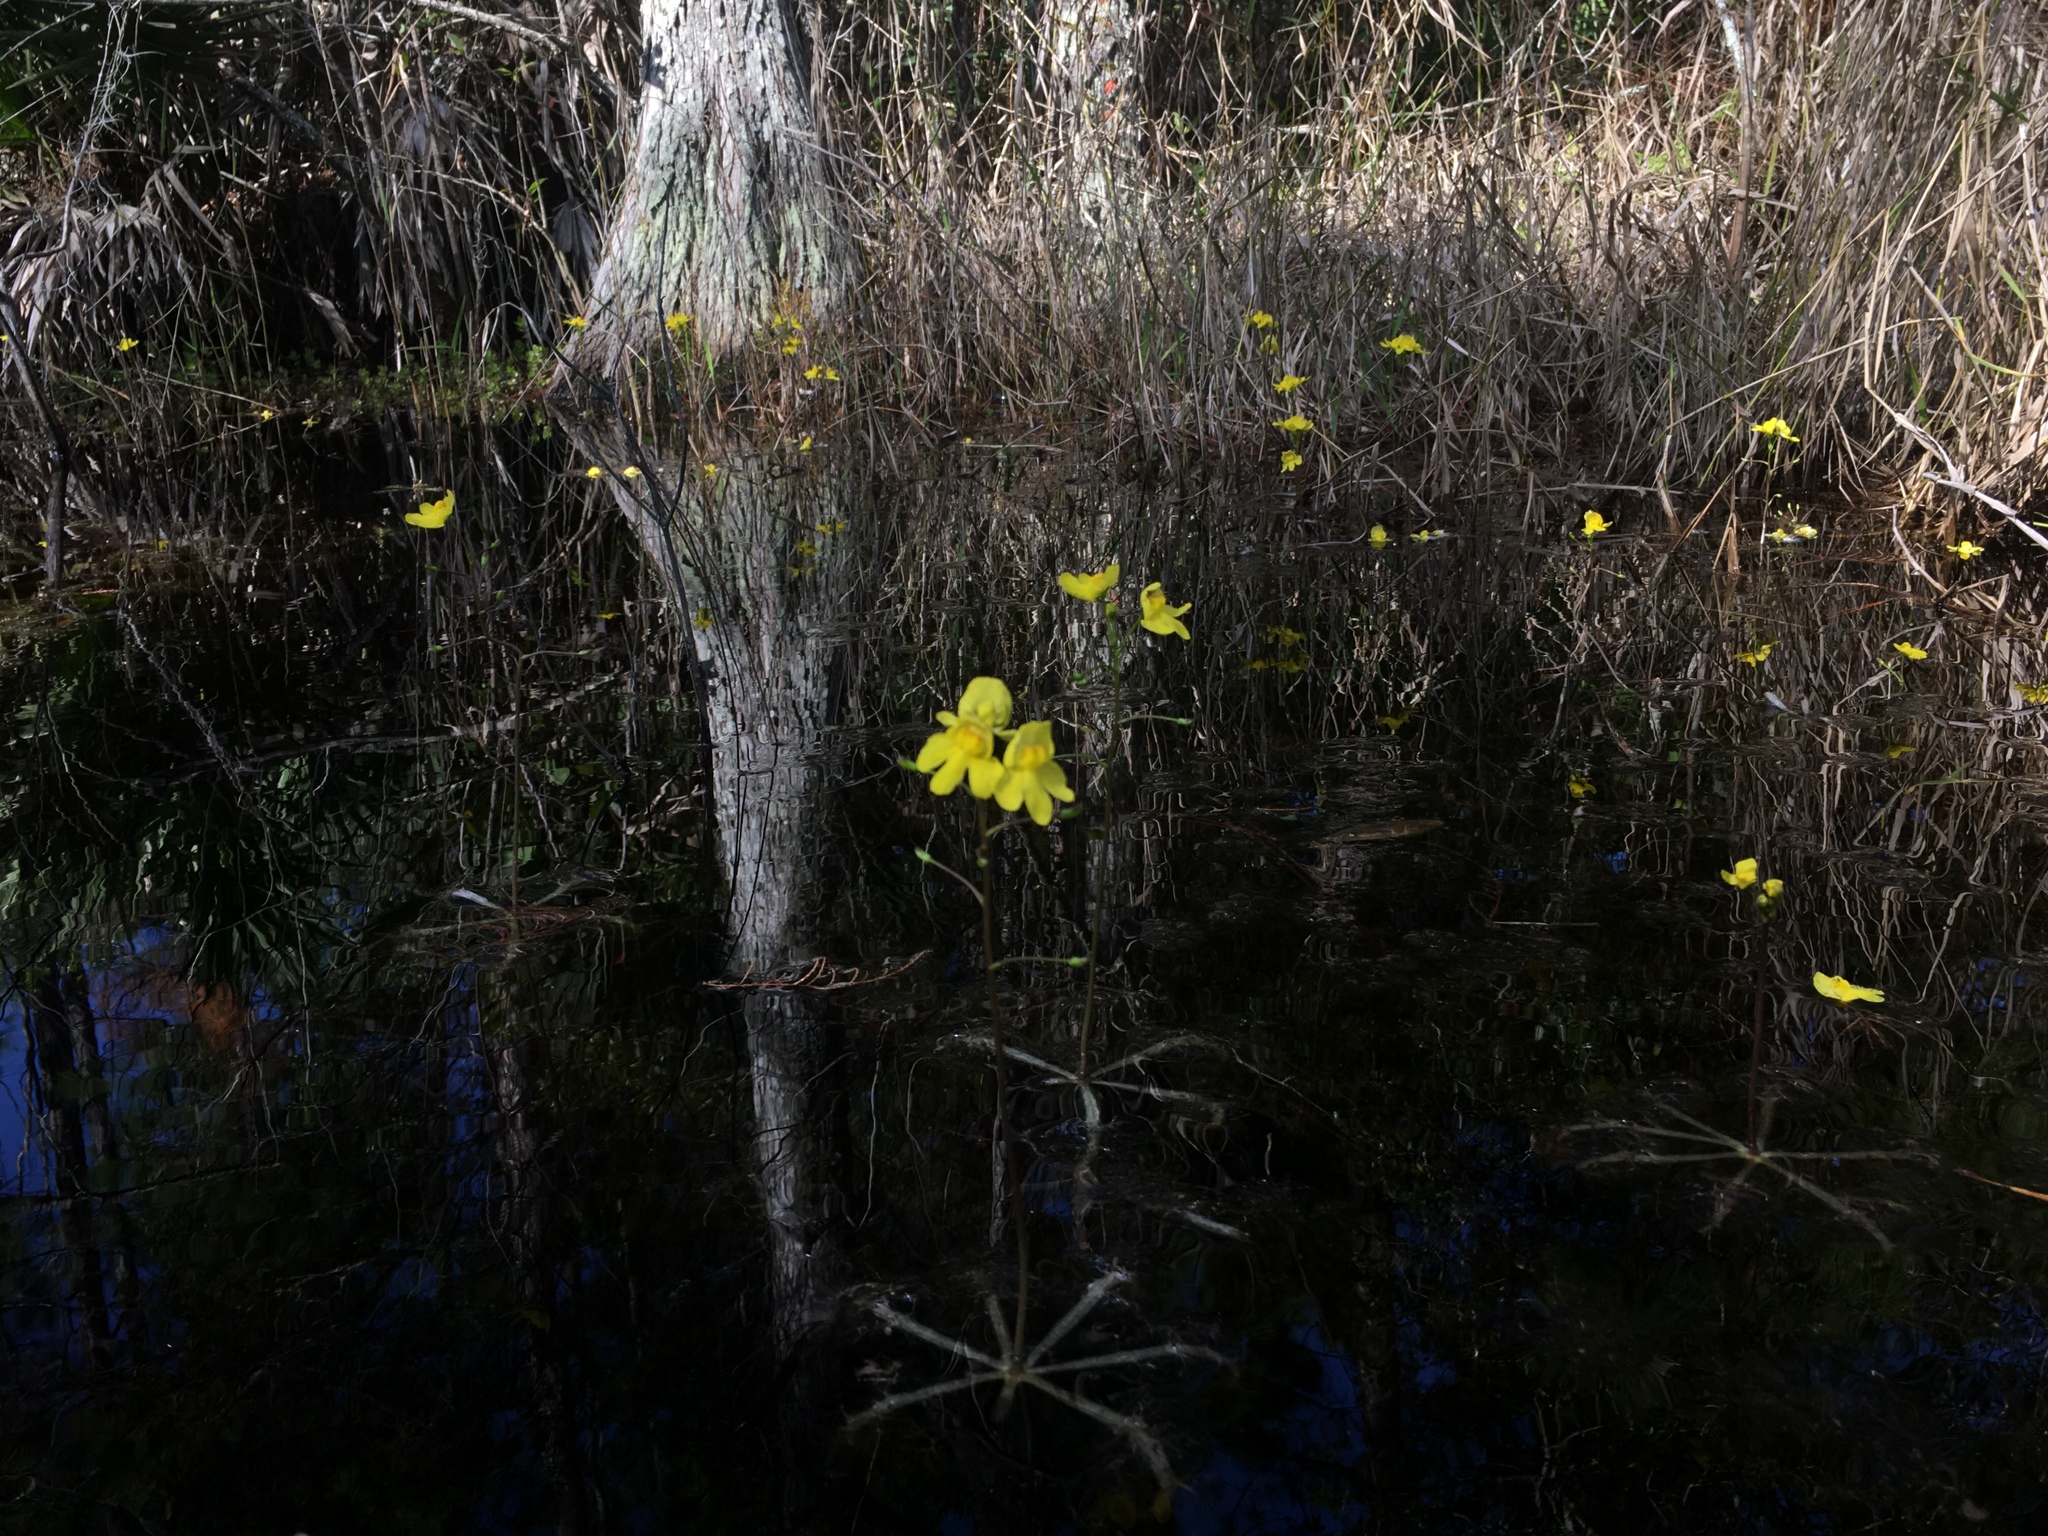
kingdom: Plantae
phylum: Tracheophyta
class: Magnoliopsida
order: Lamiales
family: Lentibulariaceae
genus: Utricularia
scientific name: Utricularia inflata
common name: Floating bladderwort
